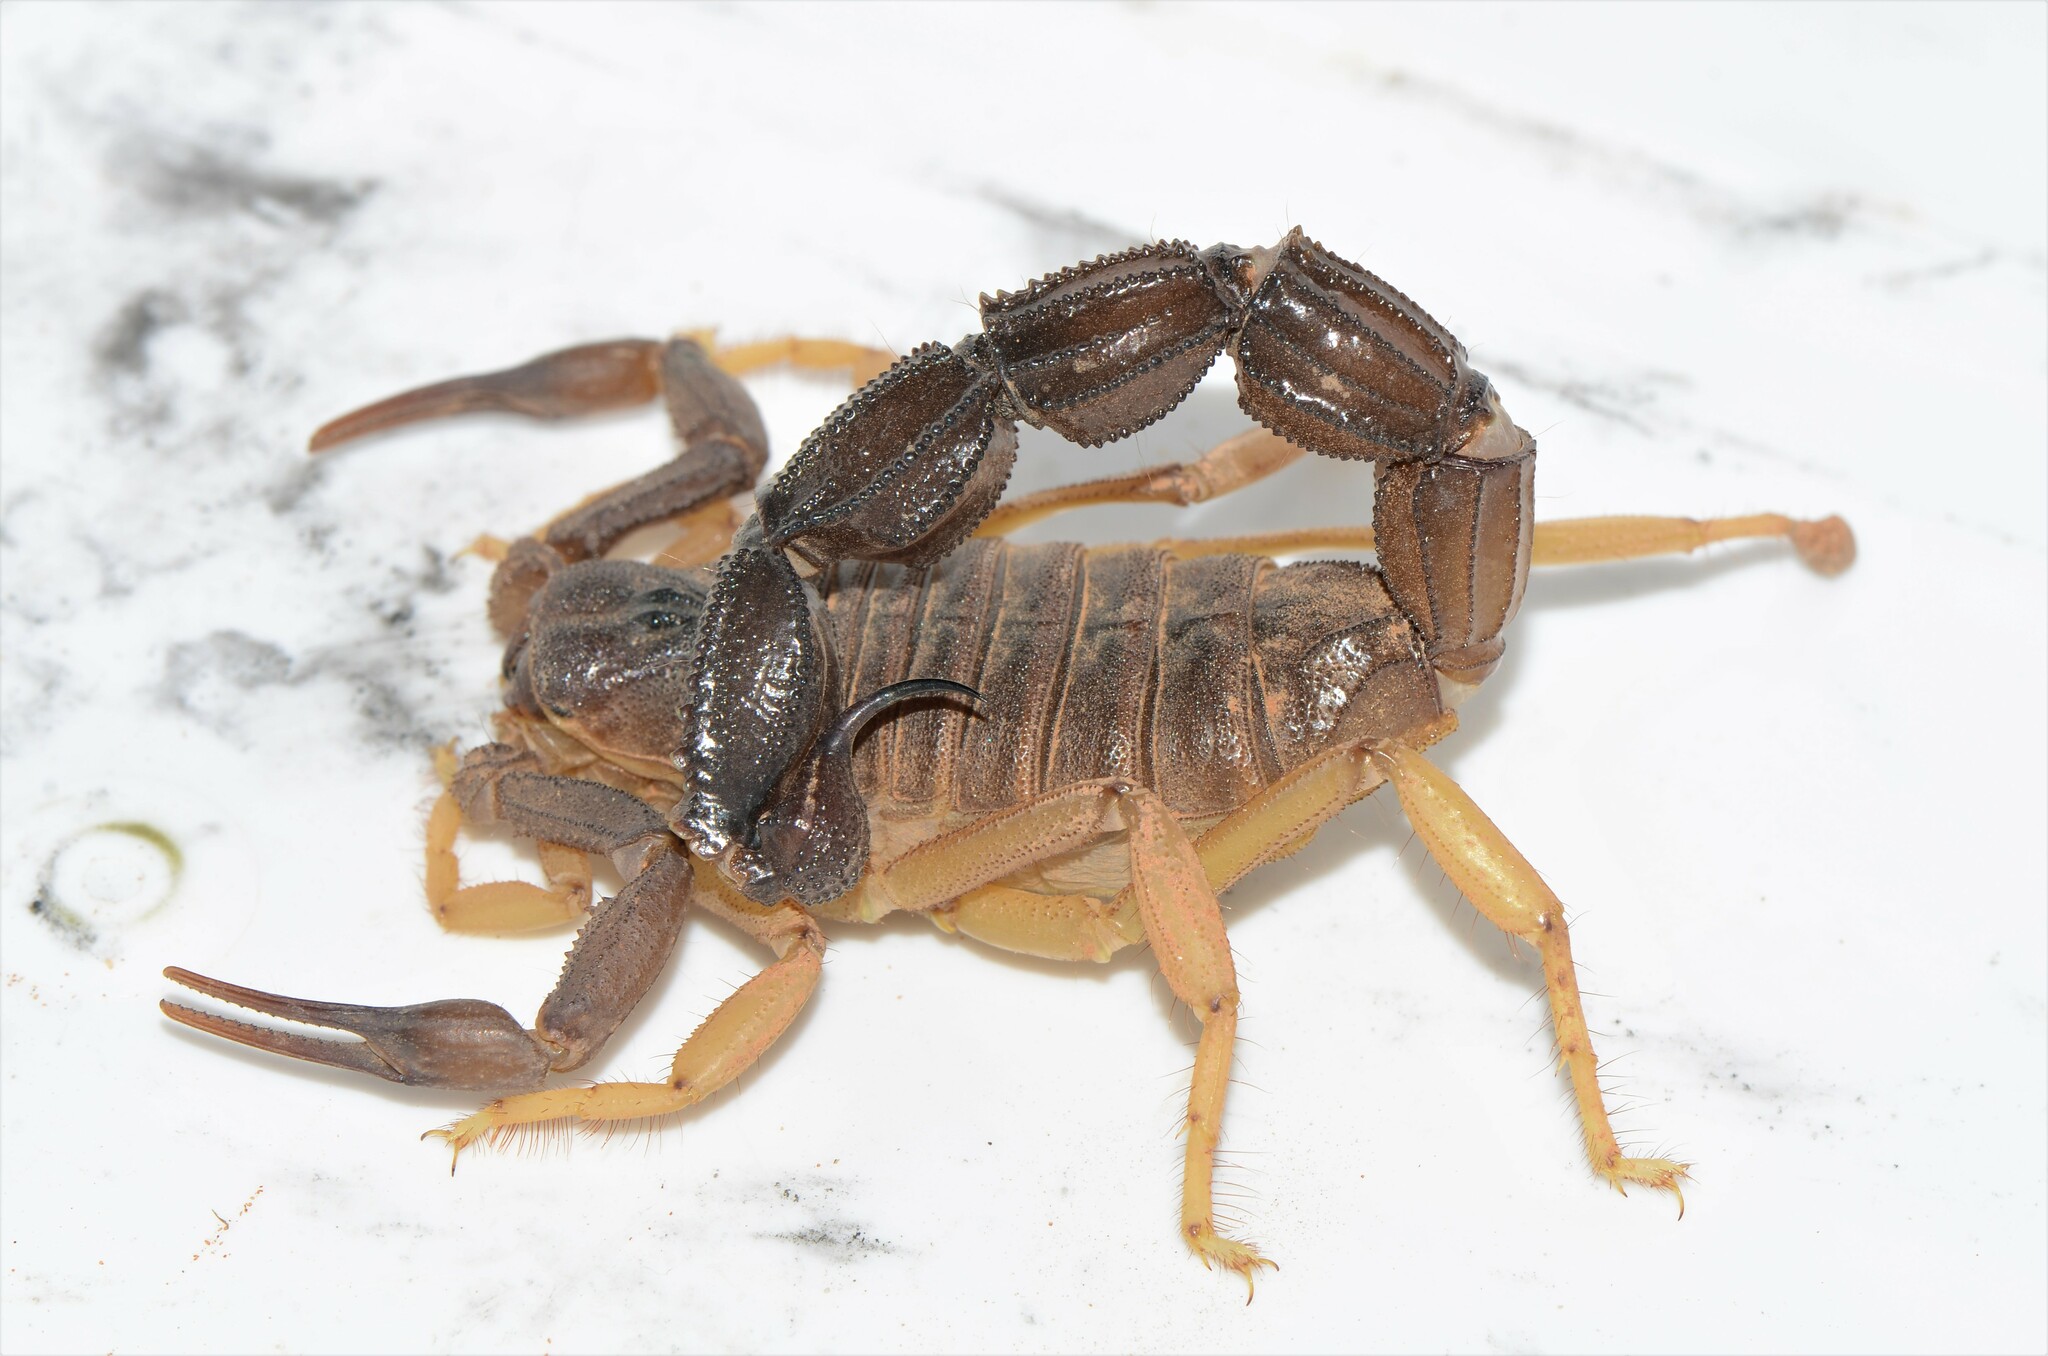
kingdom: Animalia
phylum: Arthropoda
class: Arachnida
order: Scorpiones
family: Buthidae
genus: Parabuthus
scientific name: Parabuthus granulatus
